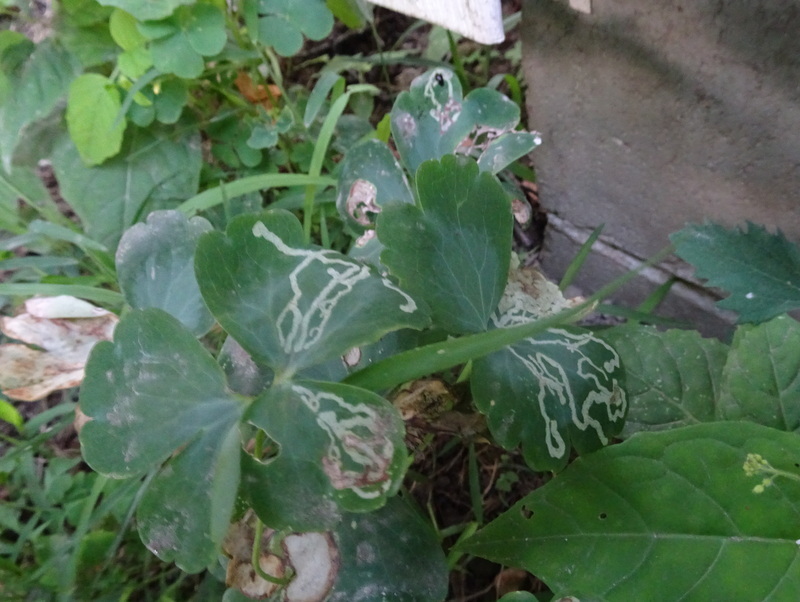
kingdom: Animalia
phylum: Arthropoda
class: Insecta
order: Diptera
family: Agromyzidae
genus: Phytomyza
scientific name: Phytomyza
